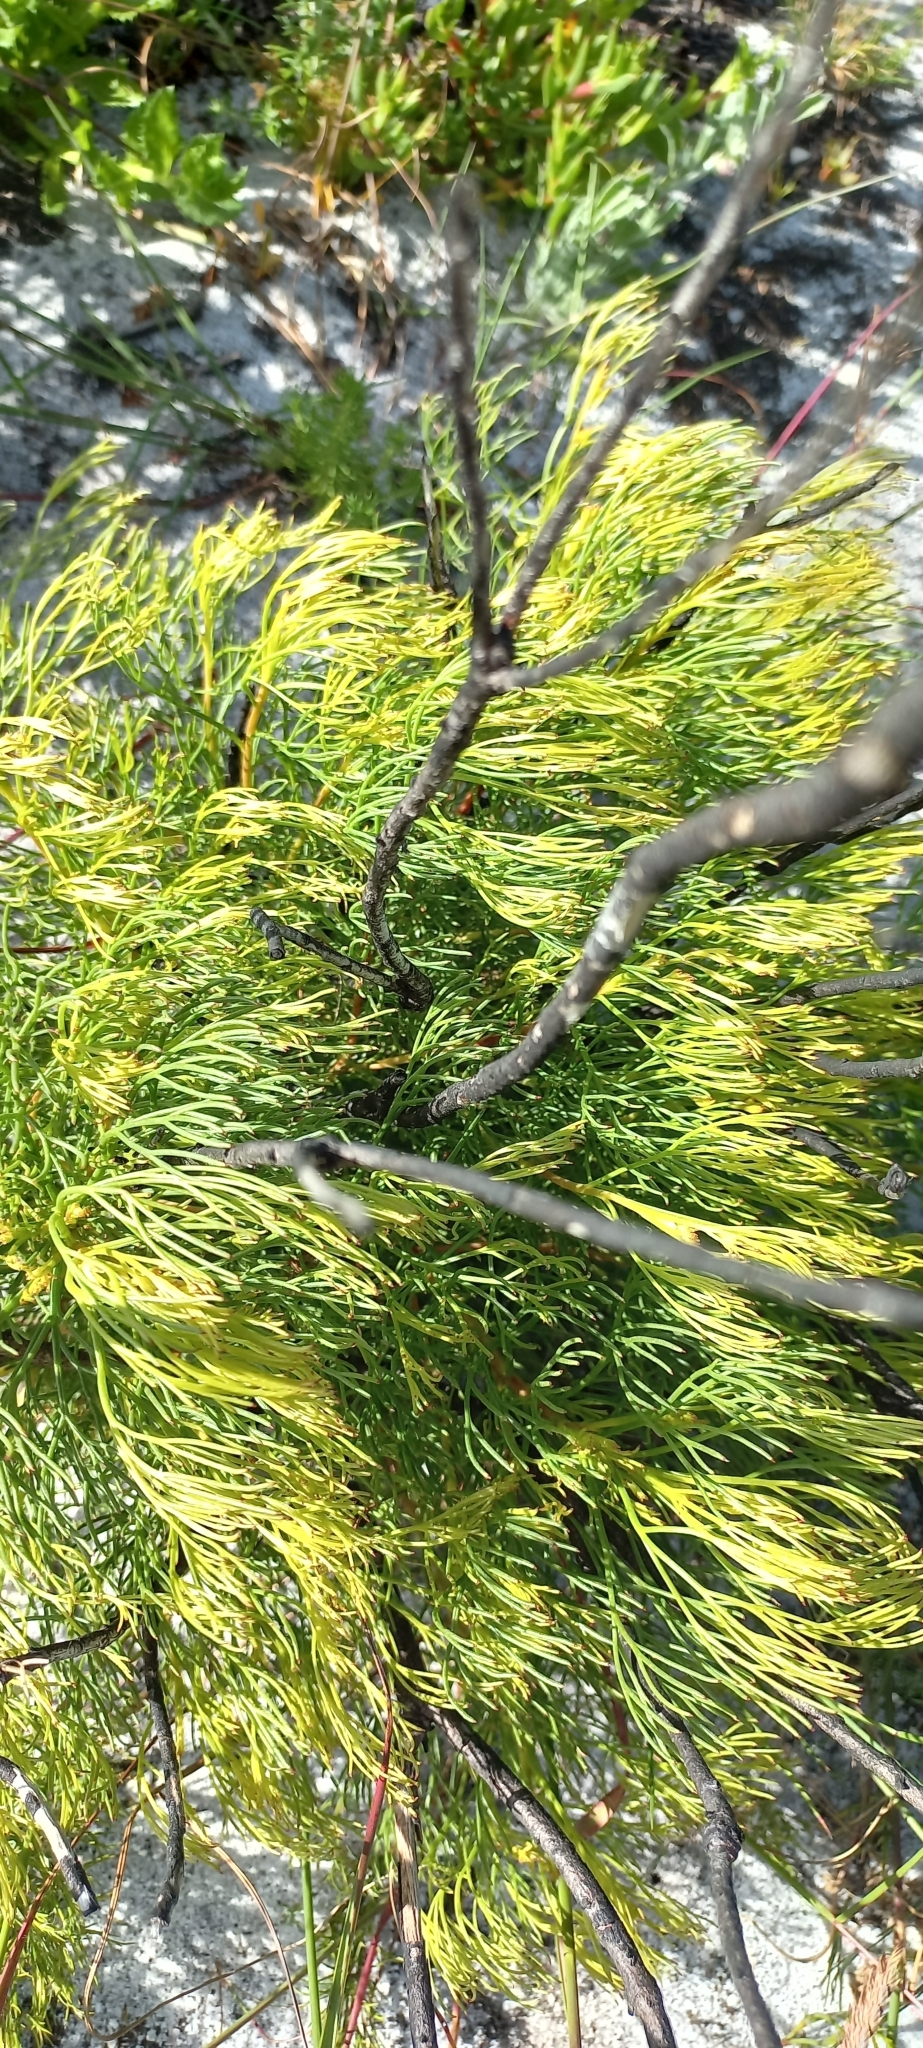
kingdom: Plantae
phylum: Tracheophyta
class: Magnoliopsida
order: Proteales
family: Proteaceae
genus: Serruria
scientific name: Serruria rubricaulis
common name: Red-stem spiderhead
